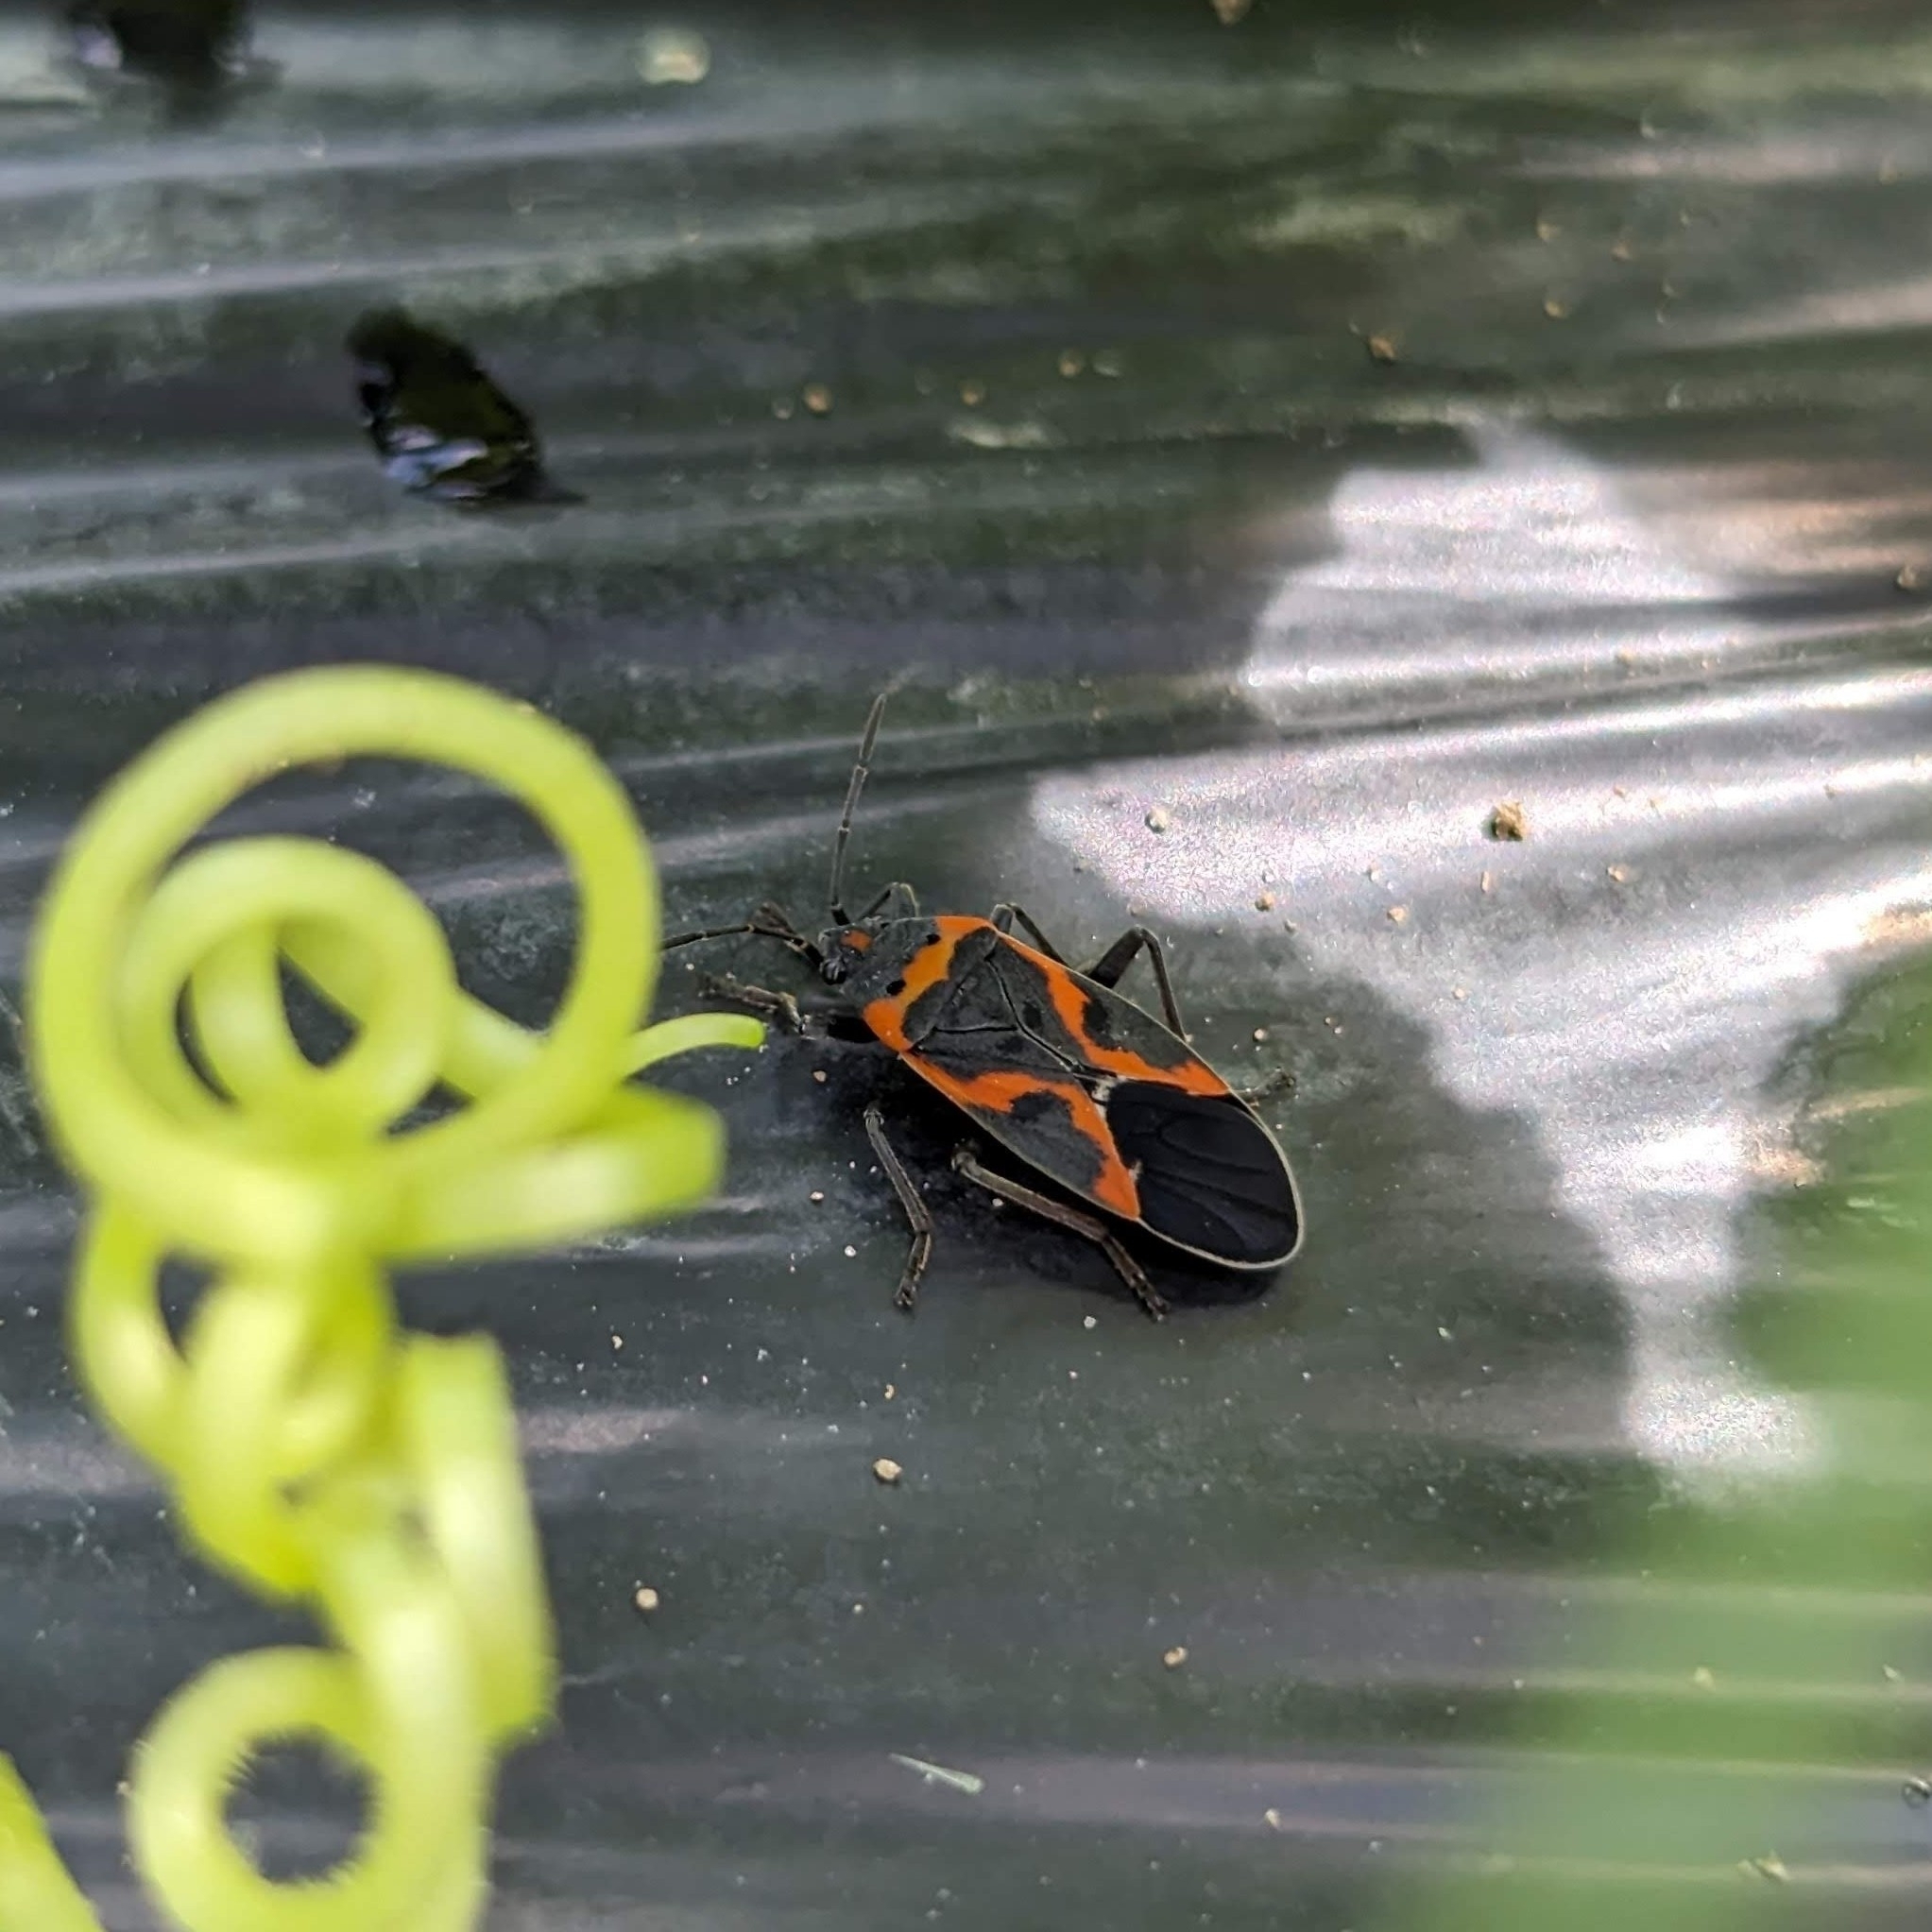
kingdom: Animalia
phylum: Arthropoda
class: Insecta
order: Hemiptera
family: Lygaeidae
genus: Lygaeus
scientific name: Lygaeus kalmii
